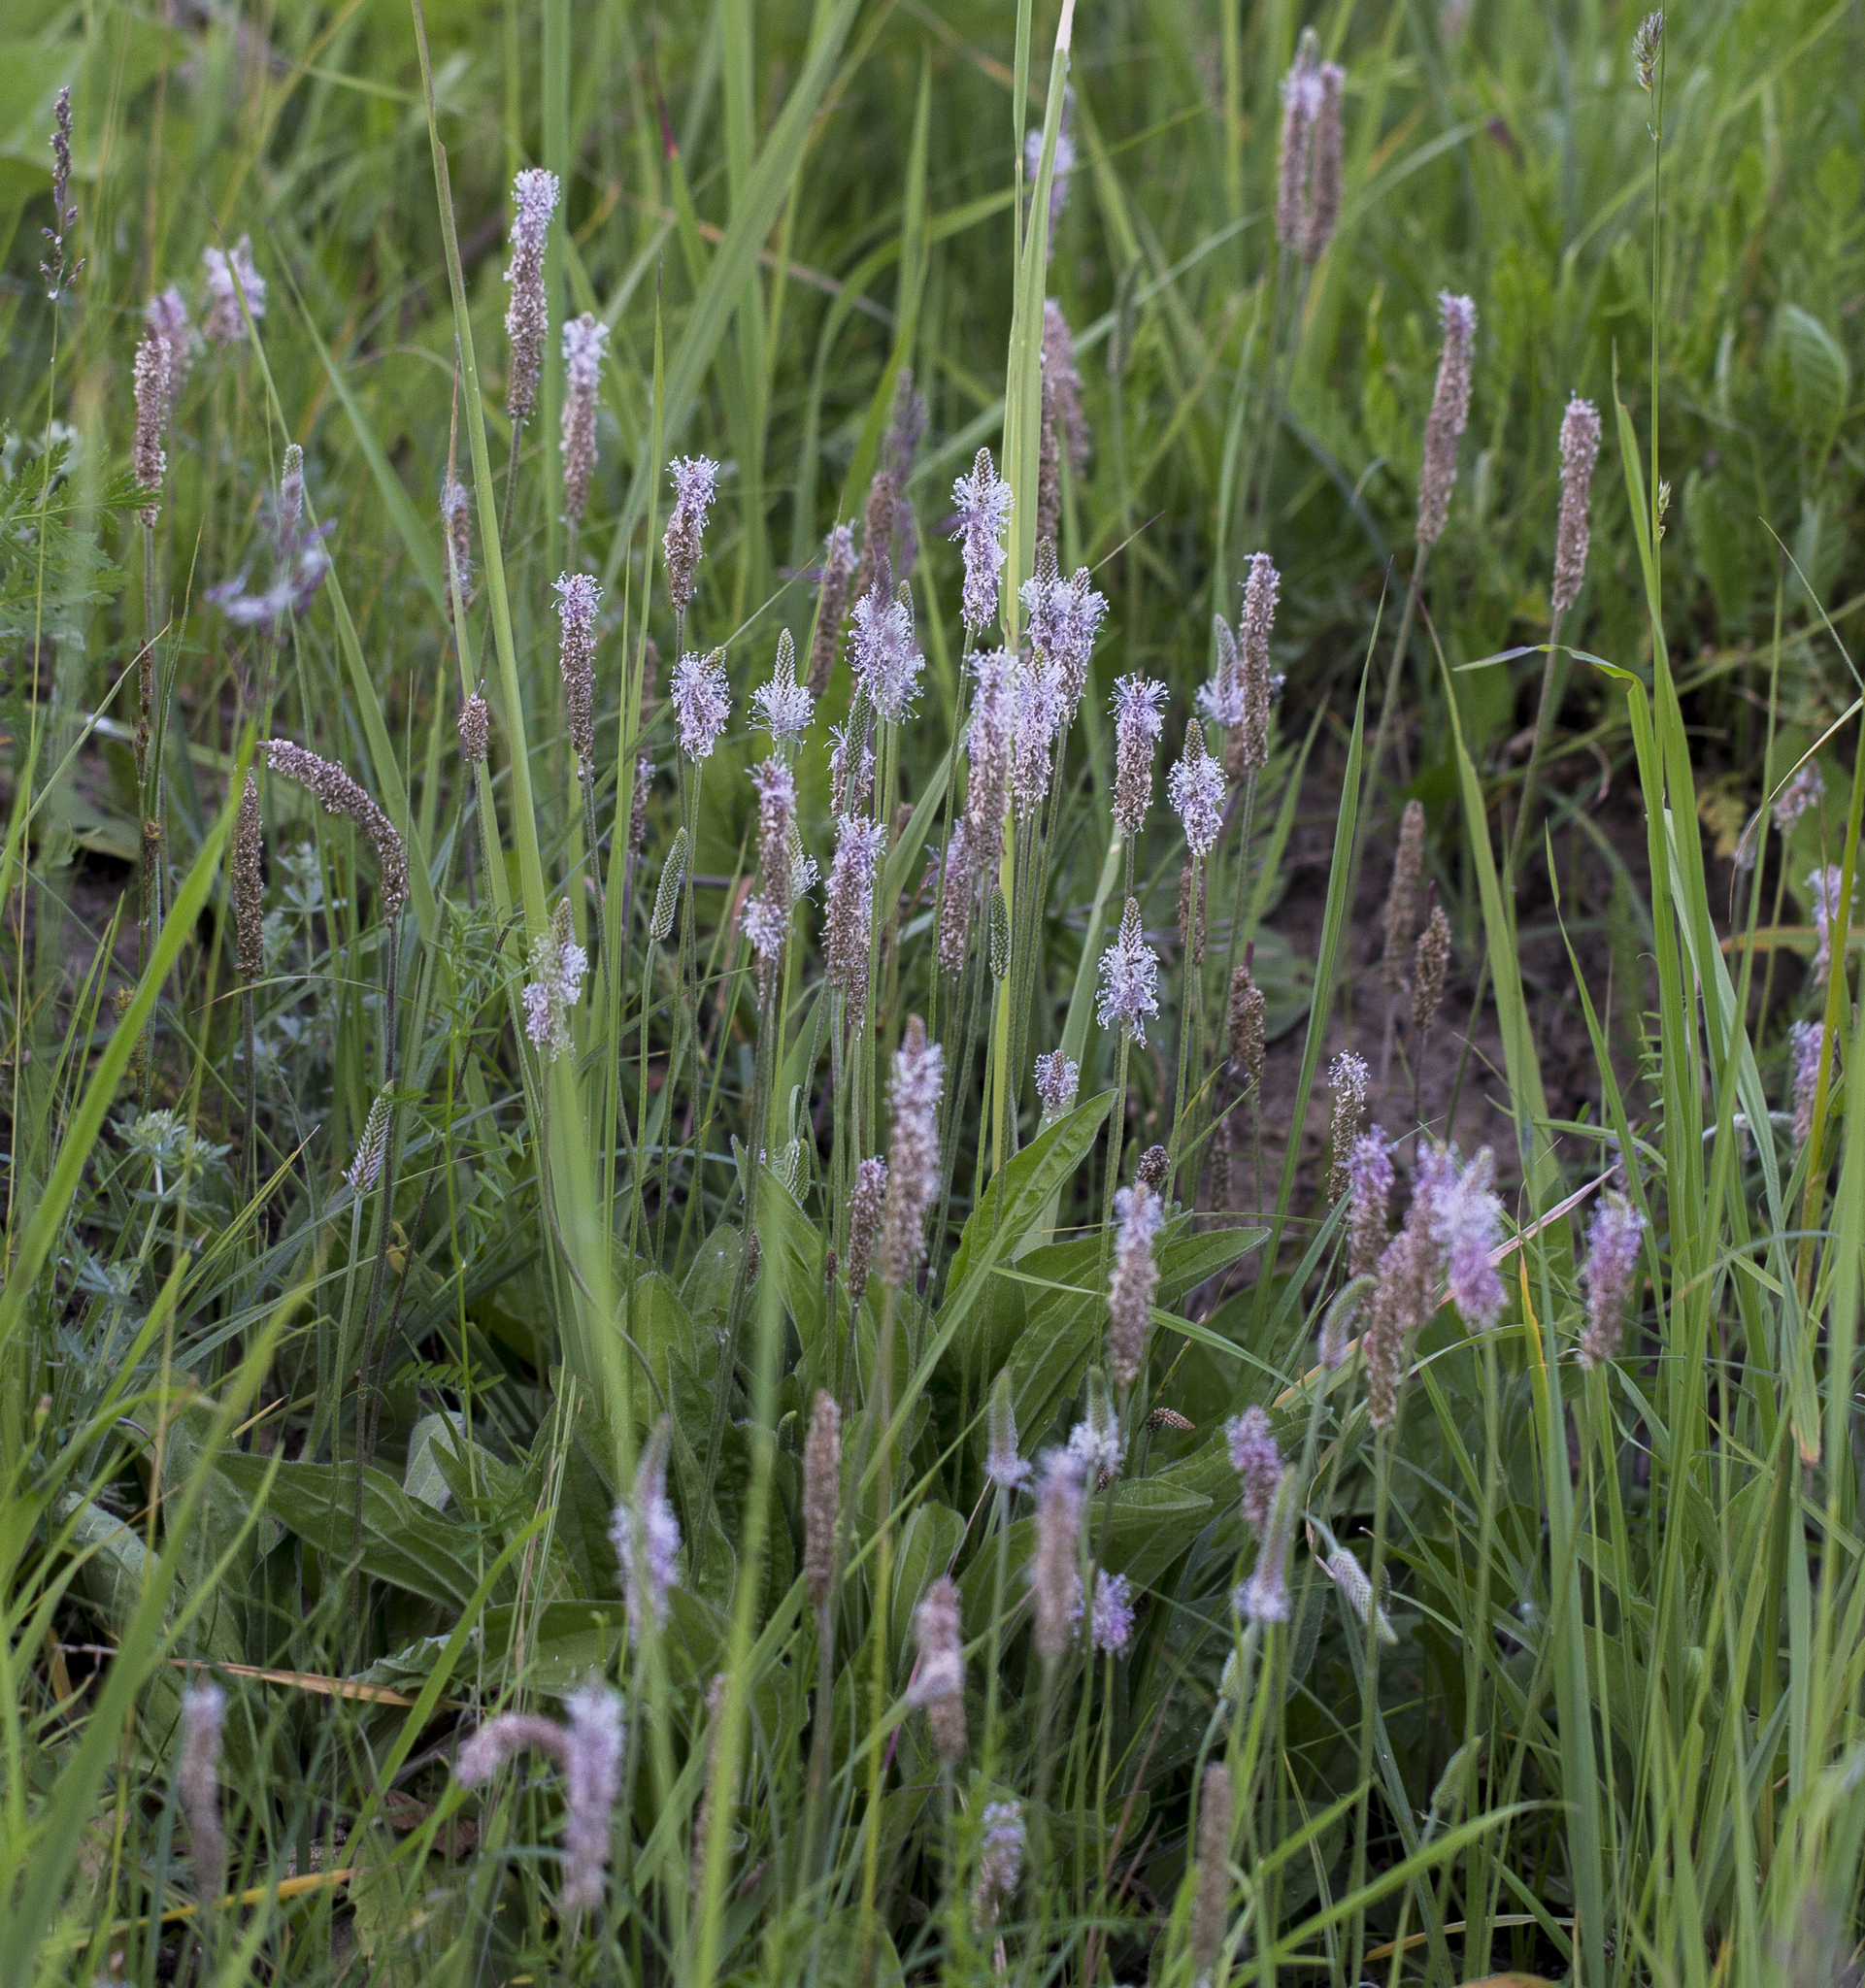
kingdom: Plantae
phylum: Tracheophyta
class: Magnoliopsida
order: Lamiales
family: Plantaginaceae
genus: Plantago
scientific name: Plantago media
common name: Hoary plantain
